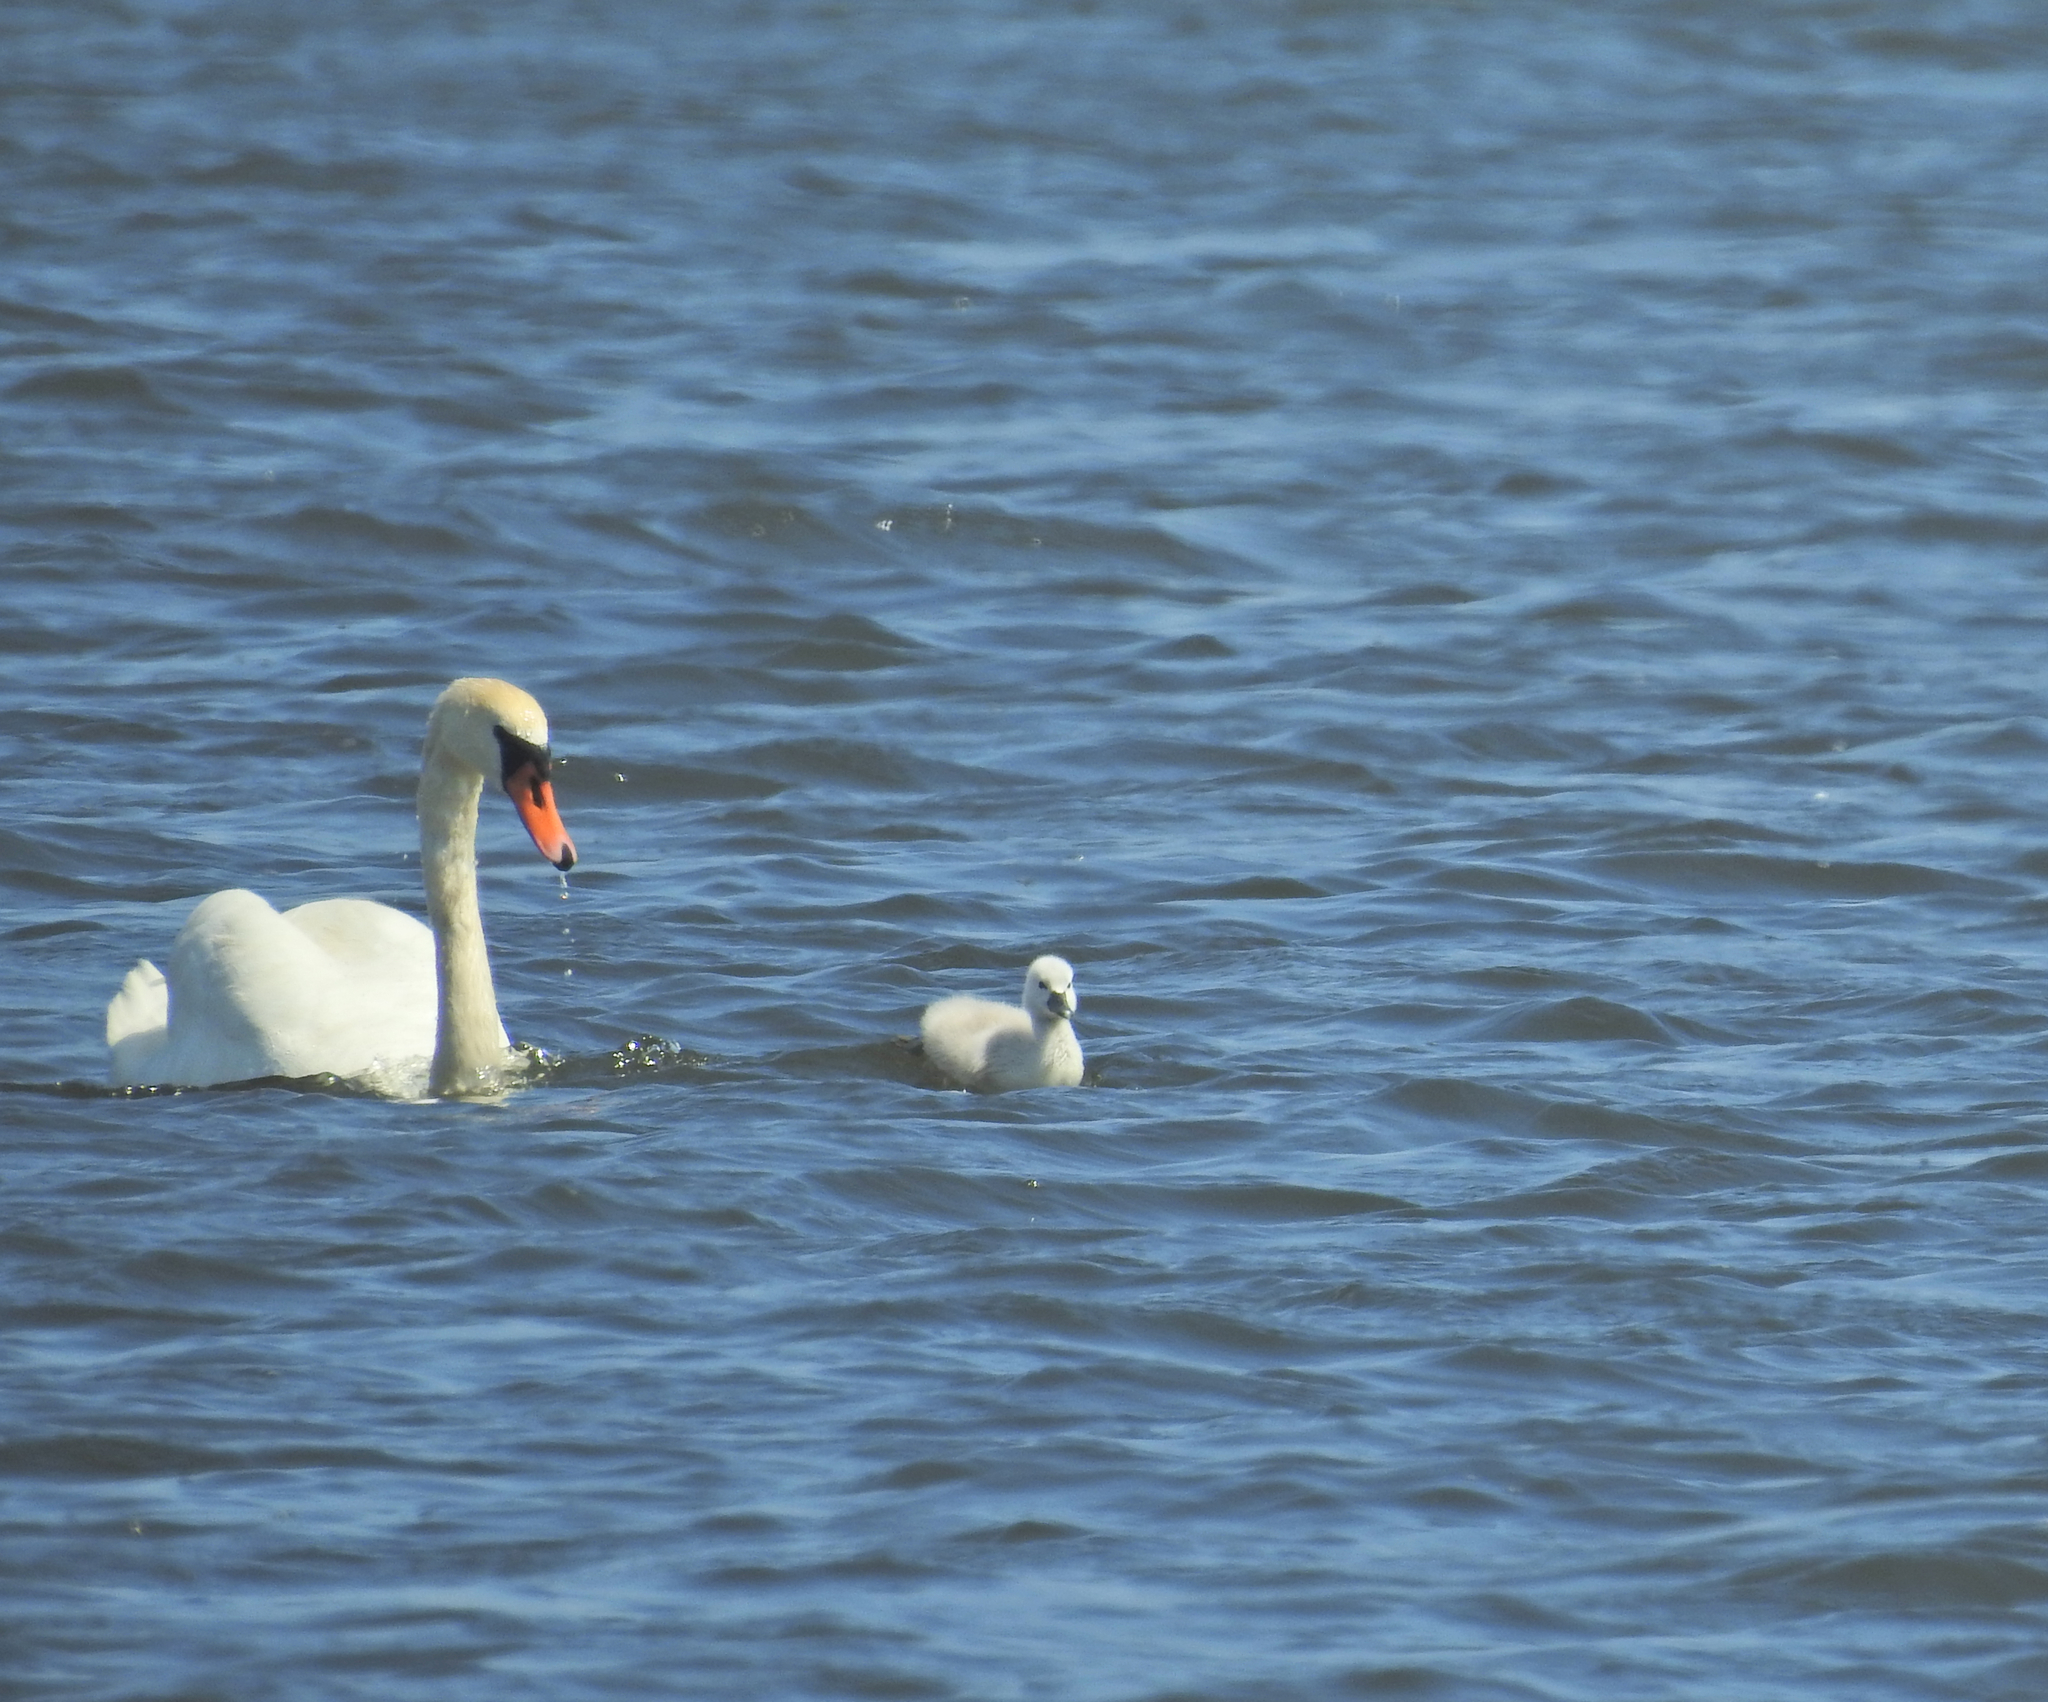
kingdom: Animalia
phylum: Chordata
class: Aves
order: Anseriformes
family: Anatidae
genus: Cygnus
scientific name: Cygnus olor
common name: Mute swan
